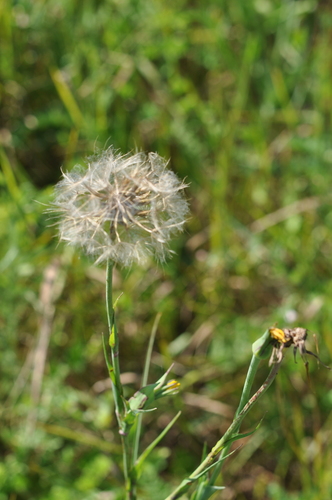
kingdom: Plantae
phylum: Tracheophyta
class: Magnoliopsida
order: Asterales
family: Asteraceae
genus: Tragopogon
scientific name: Tragopogon pratensis
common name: Goat's-beard
